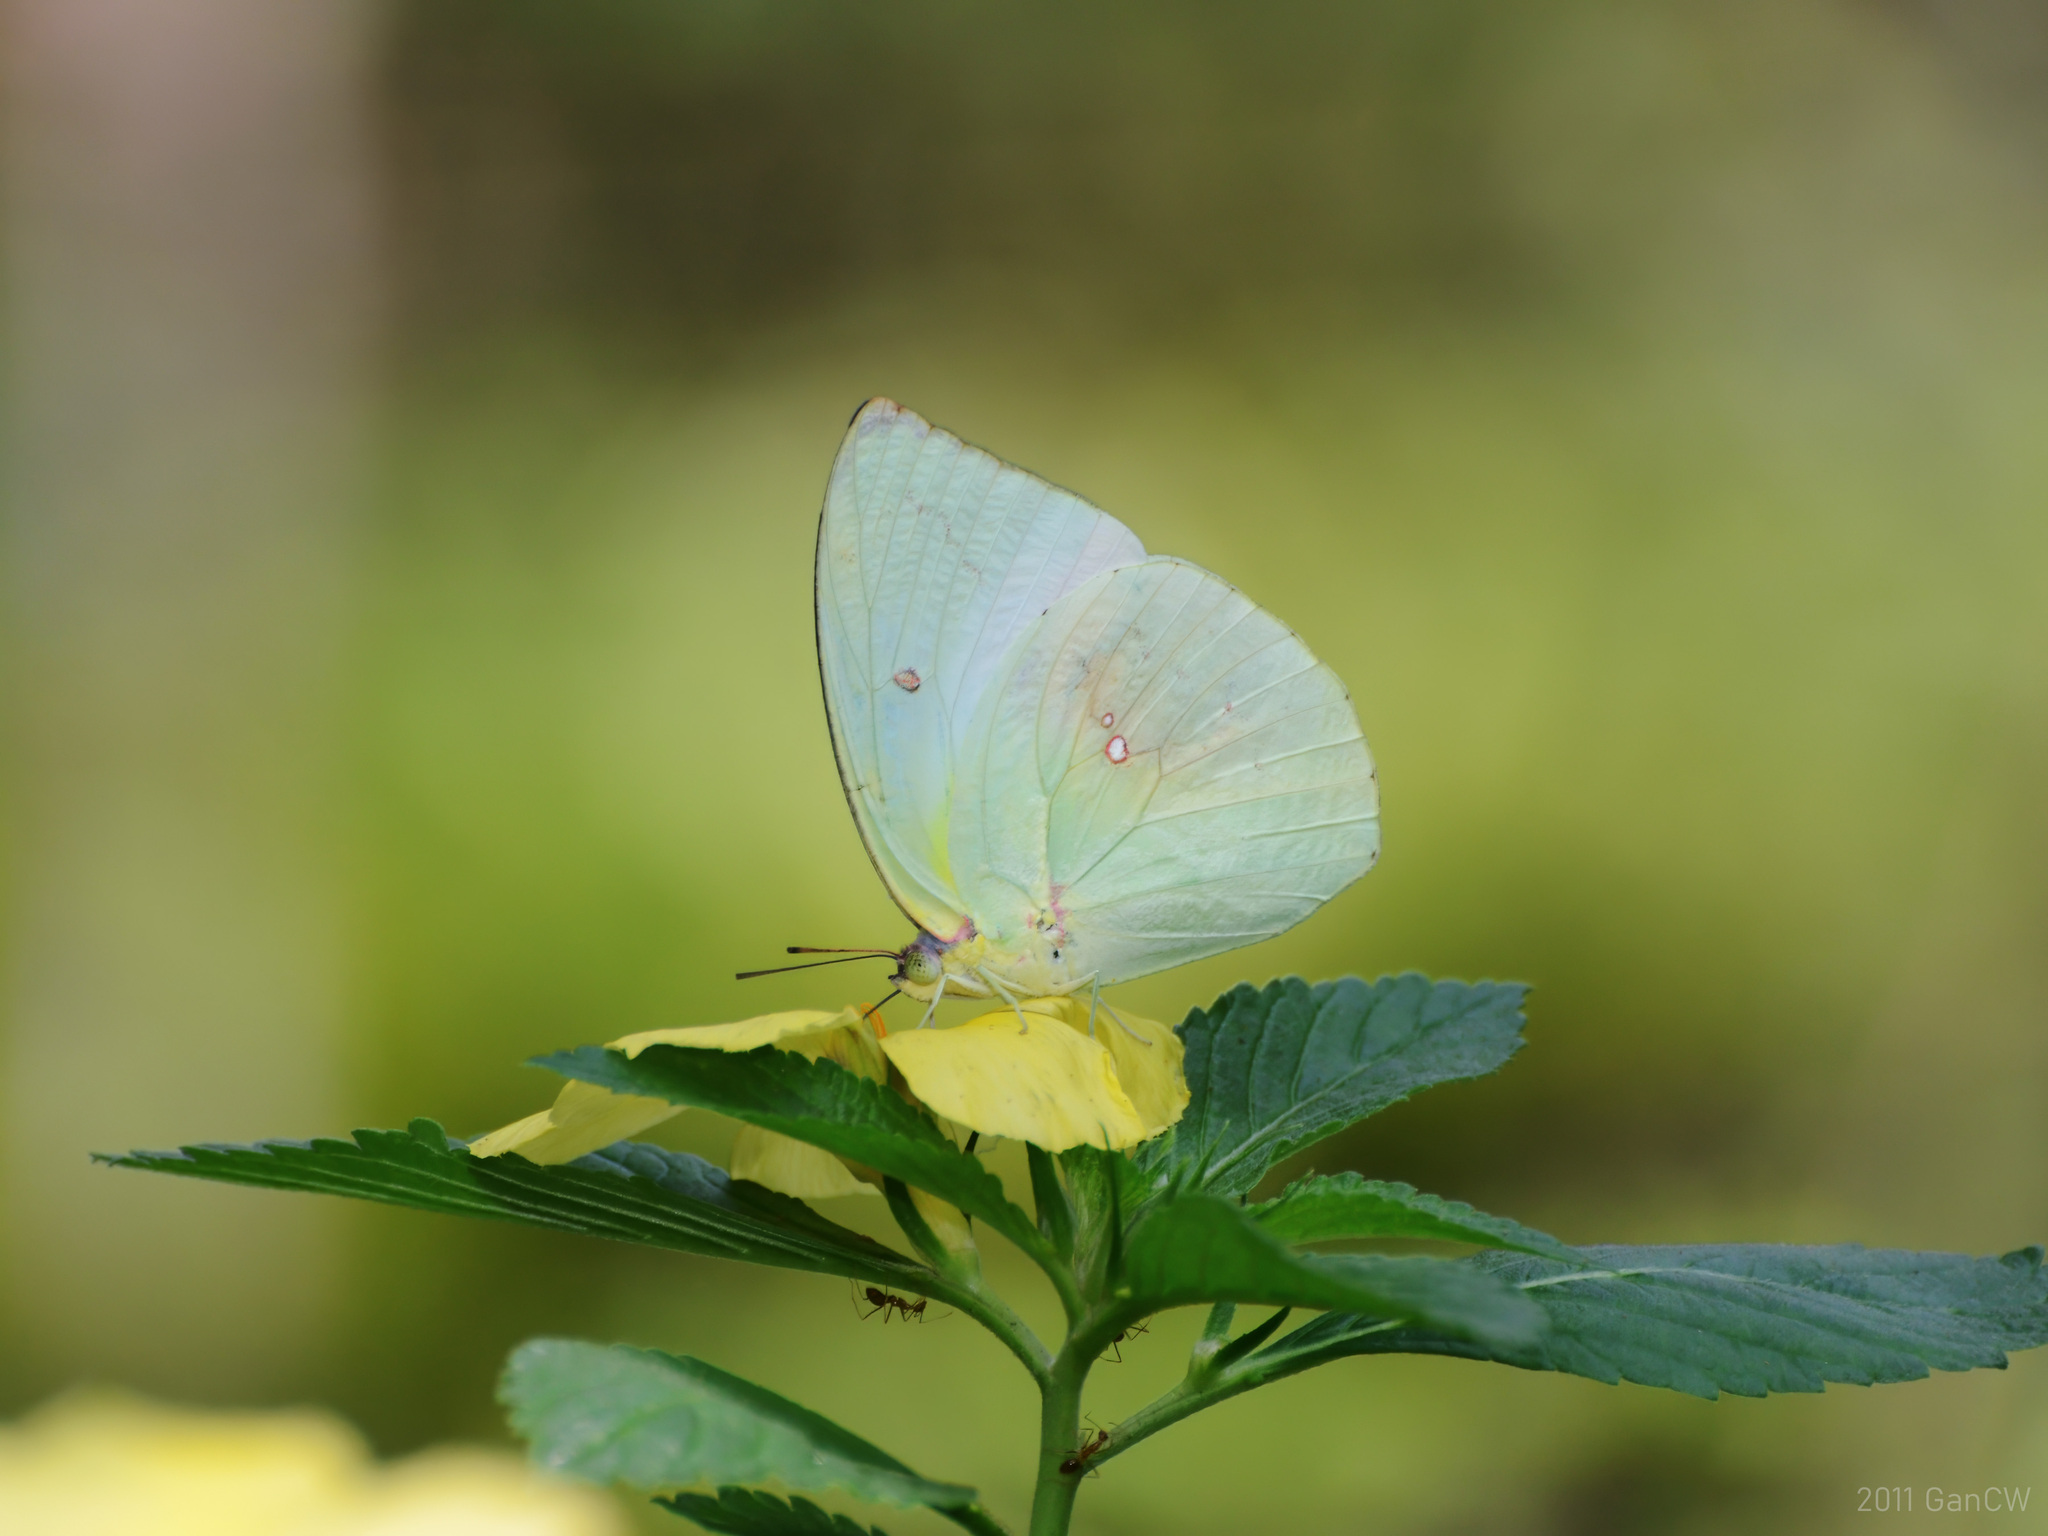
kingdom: Animalia
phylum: Arthropoda
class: Insecta
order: Lepidoptera
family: Pieridae
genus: Catopsilia
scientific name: Catopsilia pomona
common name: Common emigrant
